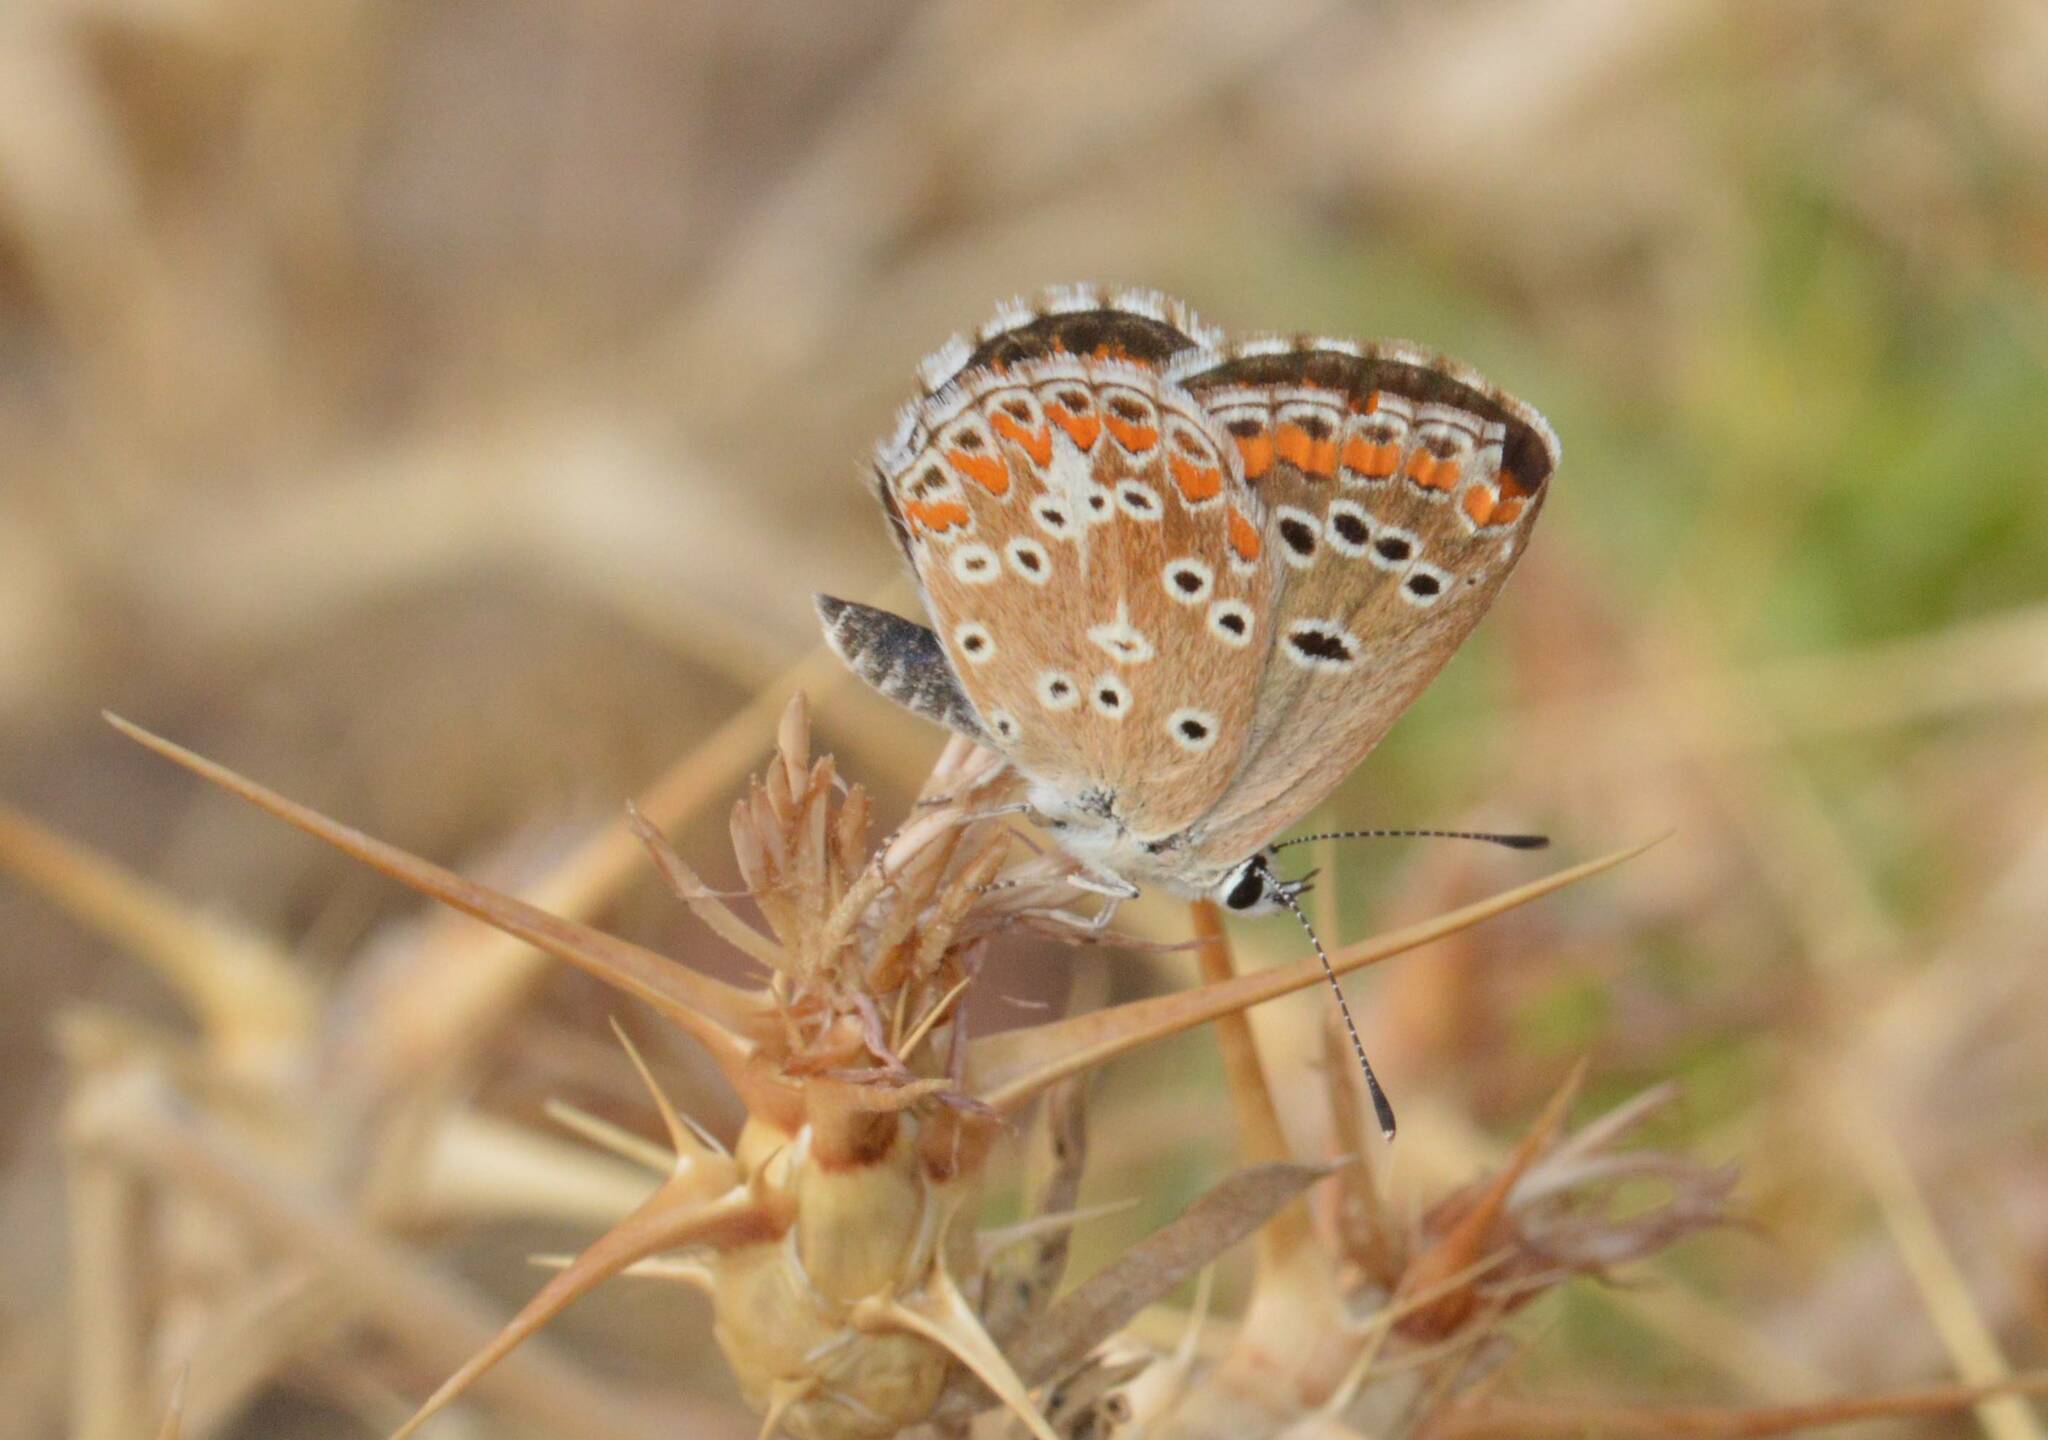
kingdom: Animalia
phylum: Arthropoda
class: Insecta
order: Lepidoptera
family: Lycaenidae
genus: Aricia
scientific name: Aricia cramera
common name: Eschscholtz´s brown  argus
